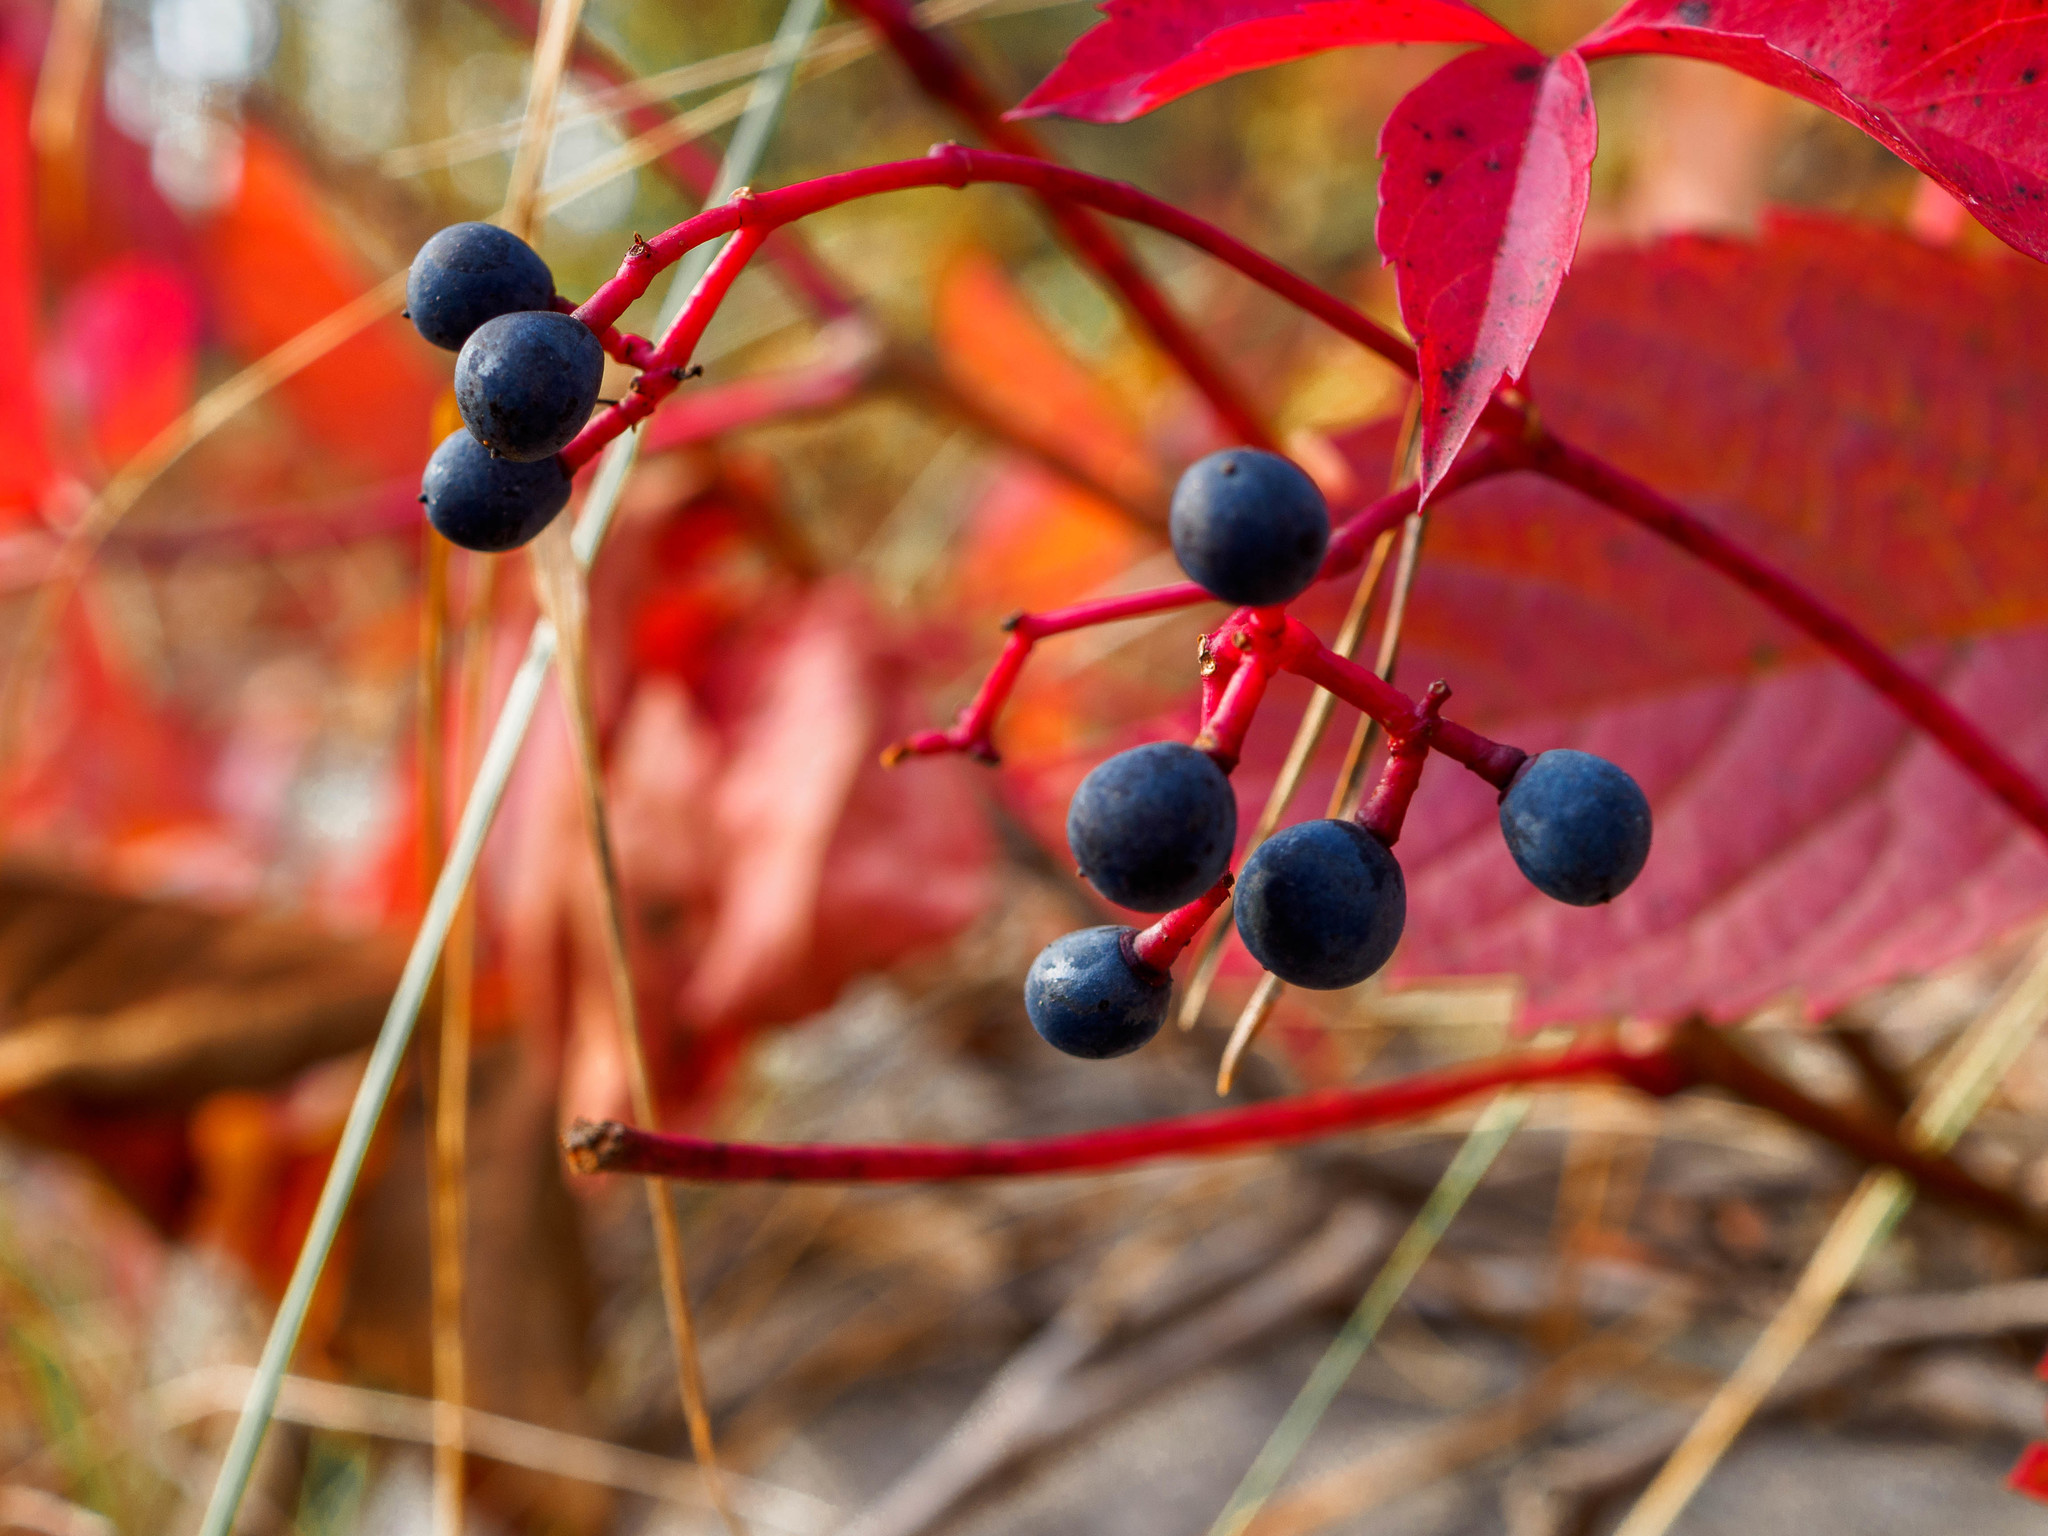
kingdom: Plantae
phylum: Tracheophyta
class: Magnoliopsida
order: Vitales
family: Vitaceae
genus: Parthenocissus
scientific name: Parthenocissus inserta
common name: False virginia-creeper
